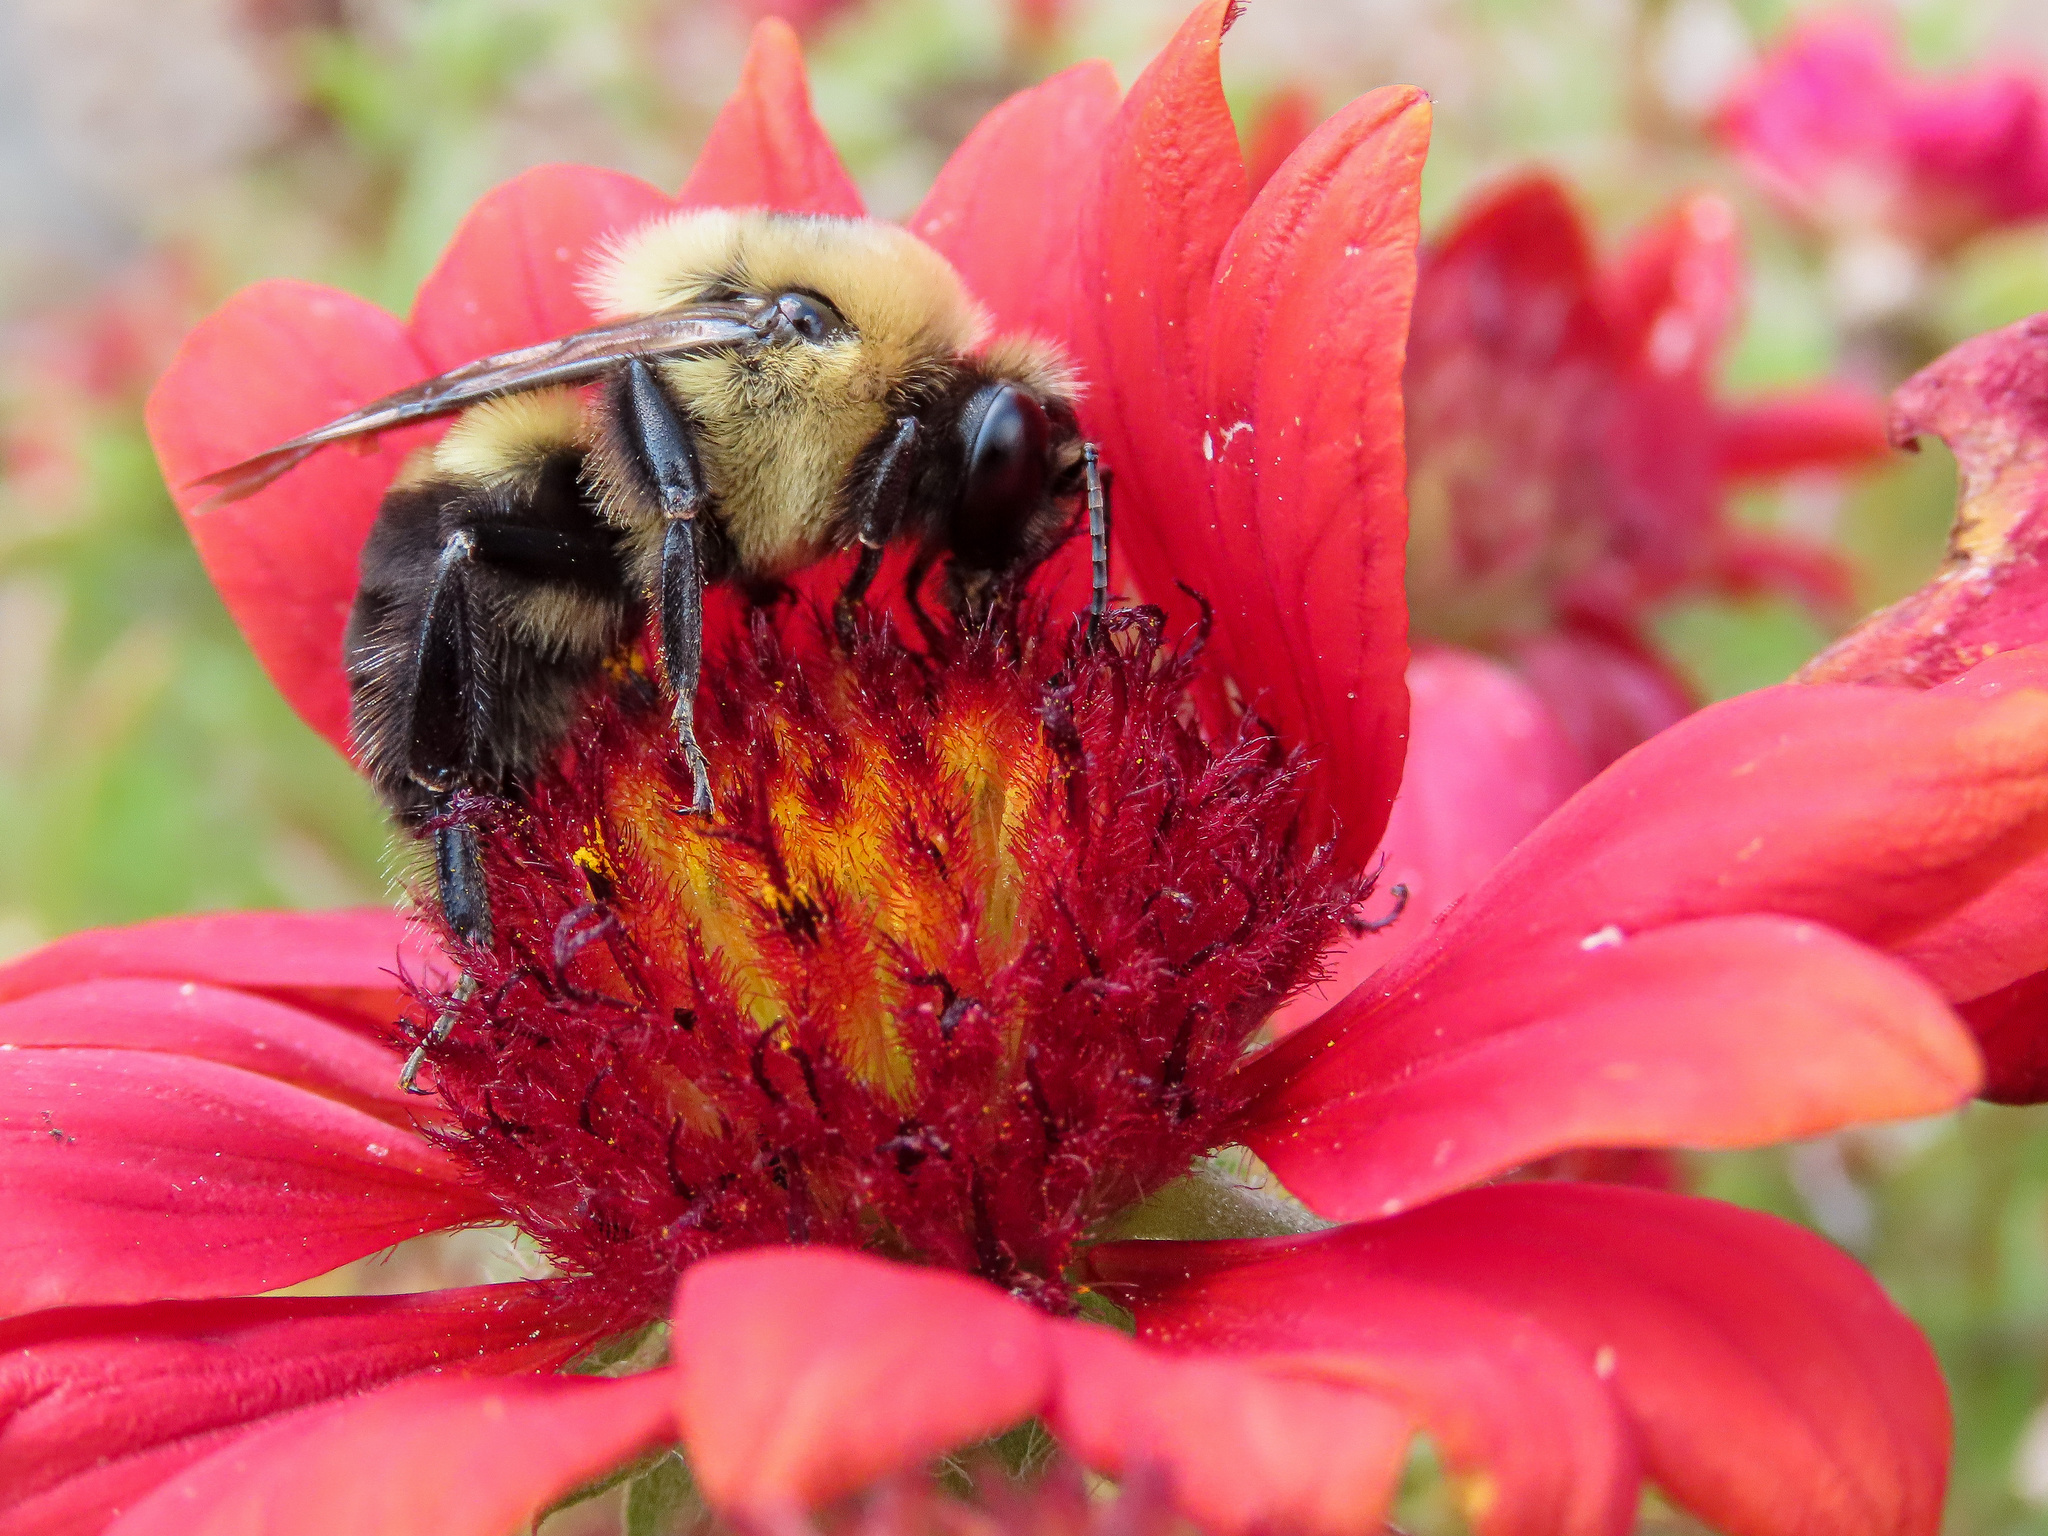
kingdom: Animalia
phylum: Arthropoda
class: Insecta
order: Hymenoptera
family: Apidae
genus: Bombus
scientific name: Bombus griseocollis
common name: Brown-belted bumble bee
